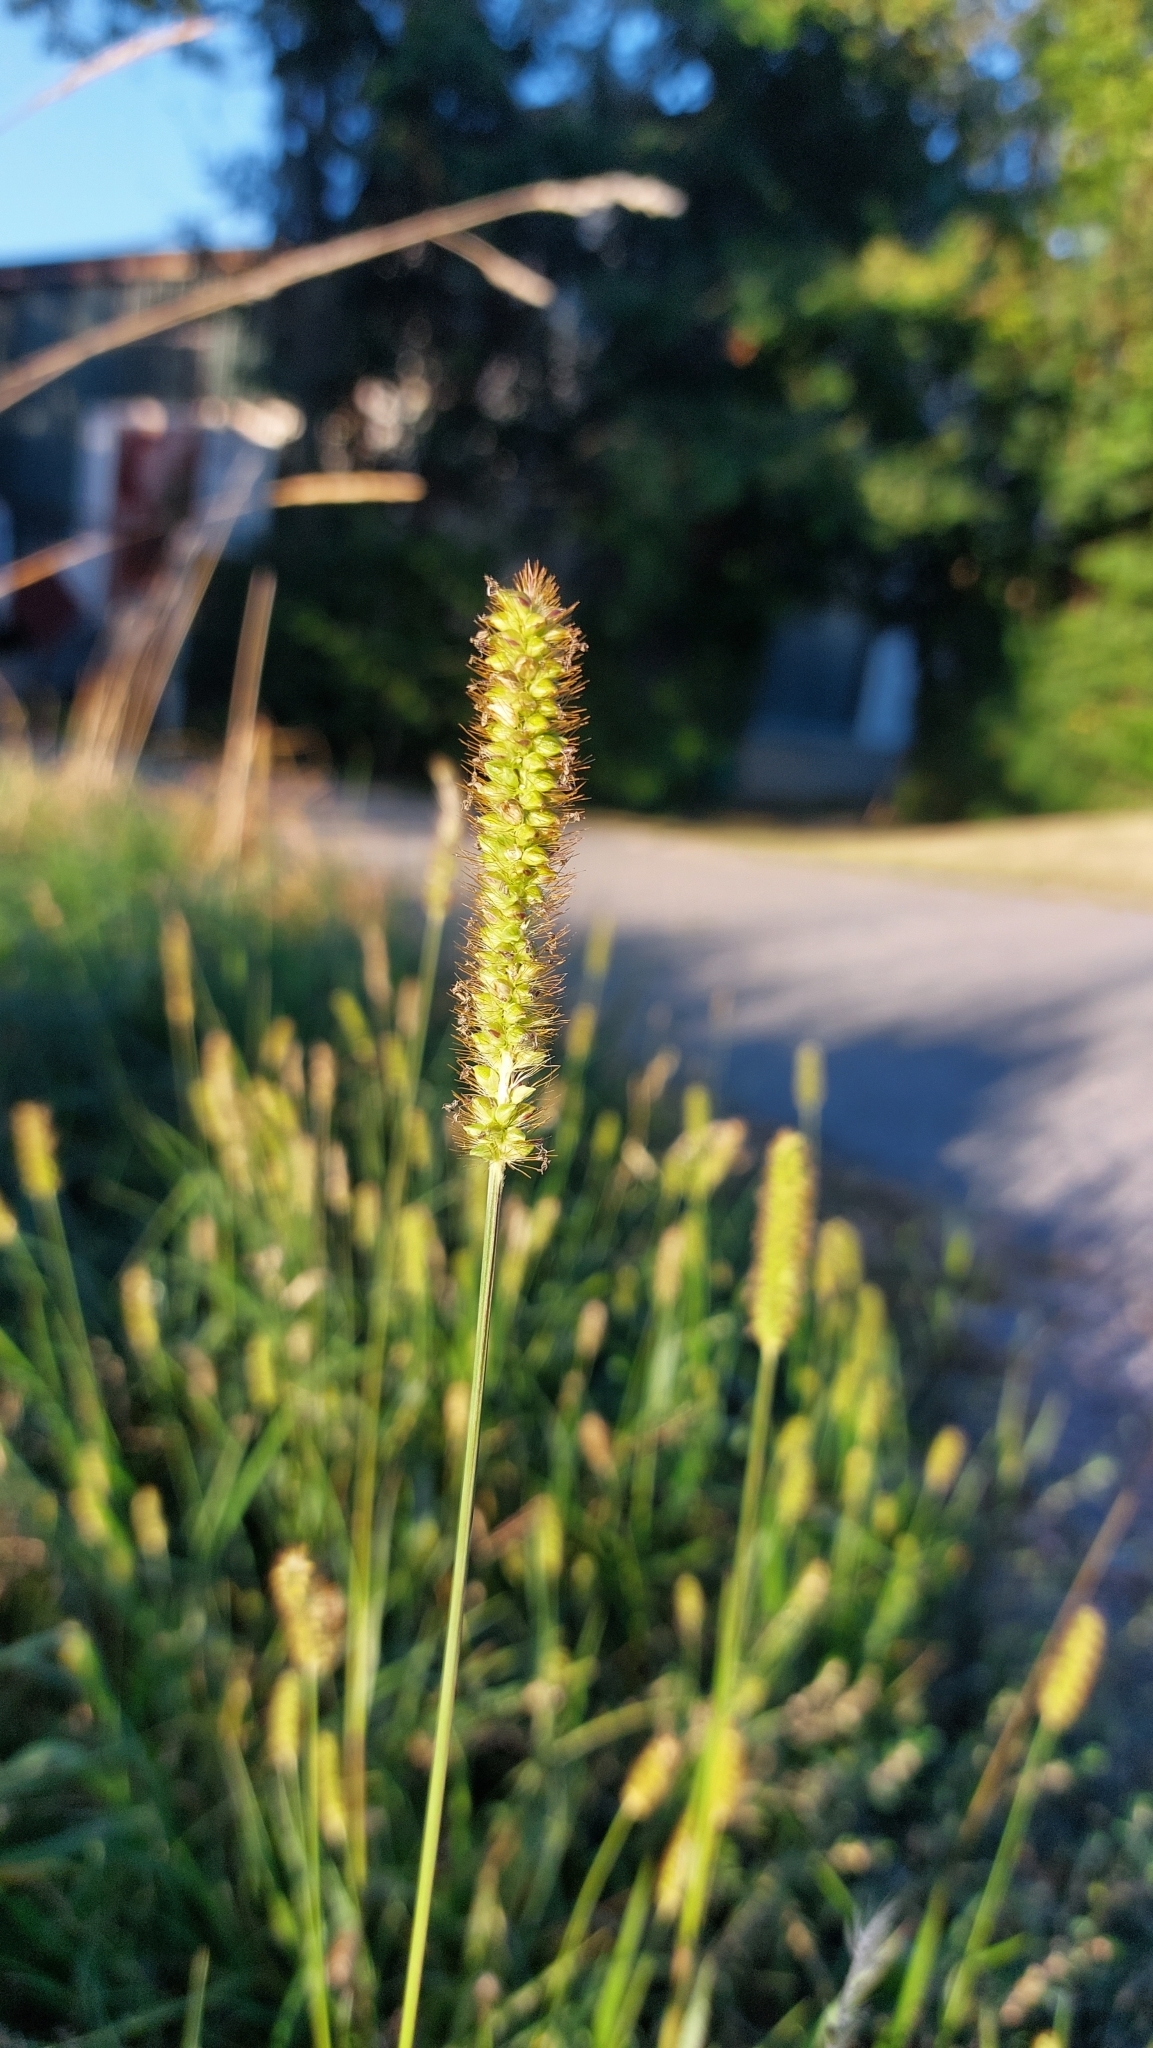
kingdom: Plantae
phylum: Tracheophyta
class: Liliopsida
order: Poales
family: Poaceae
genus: Setaria
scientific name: Setaria pumila
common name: Yellow bristle-grass
